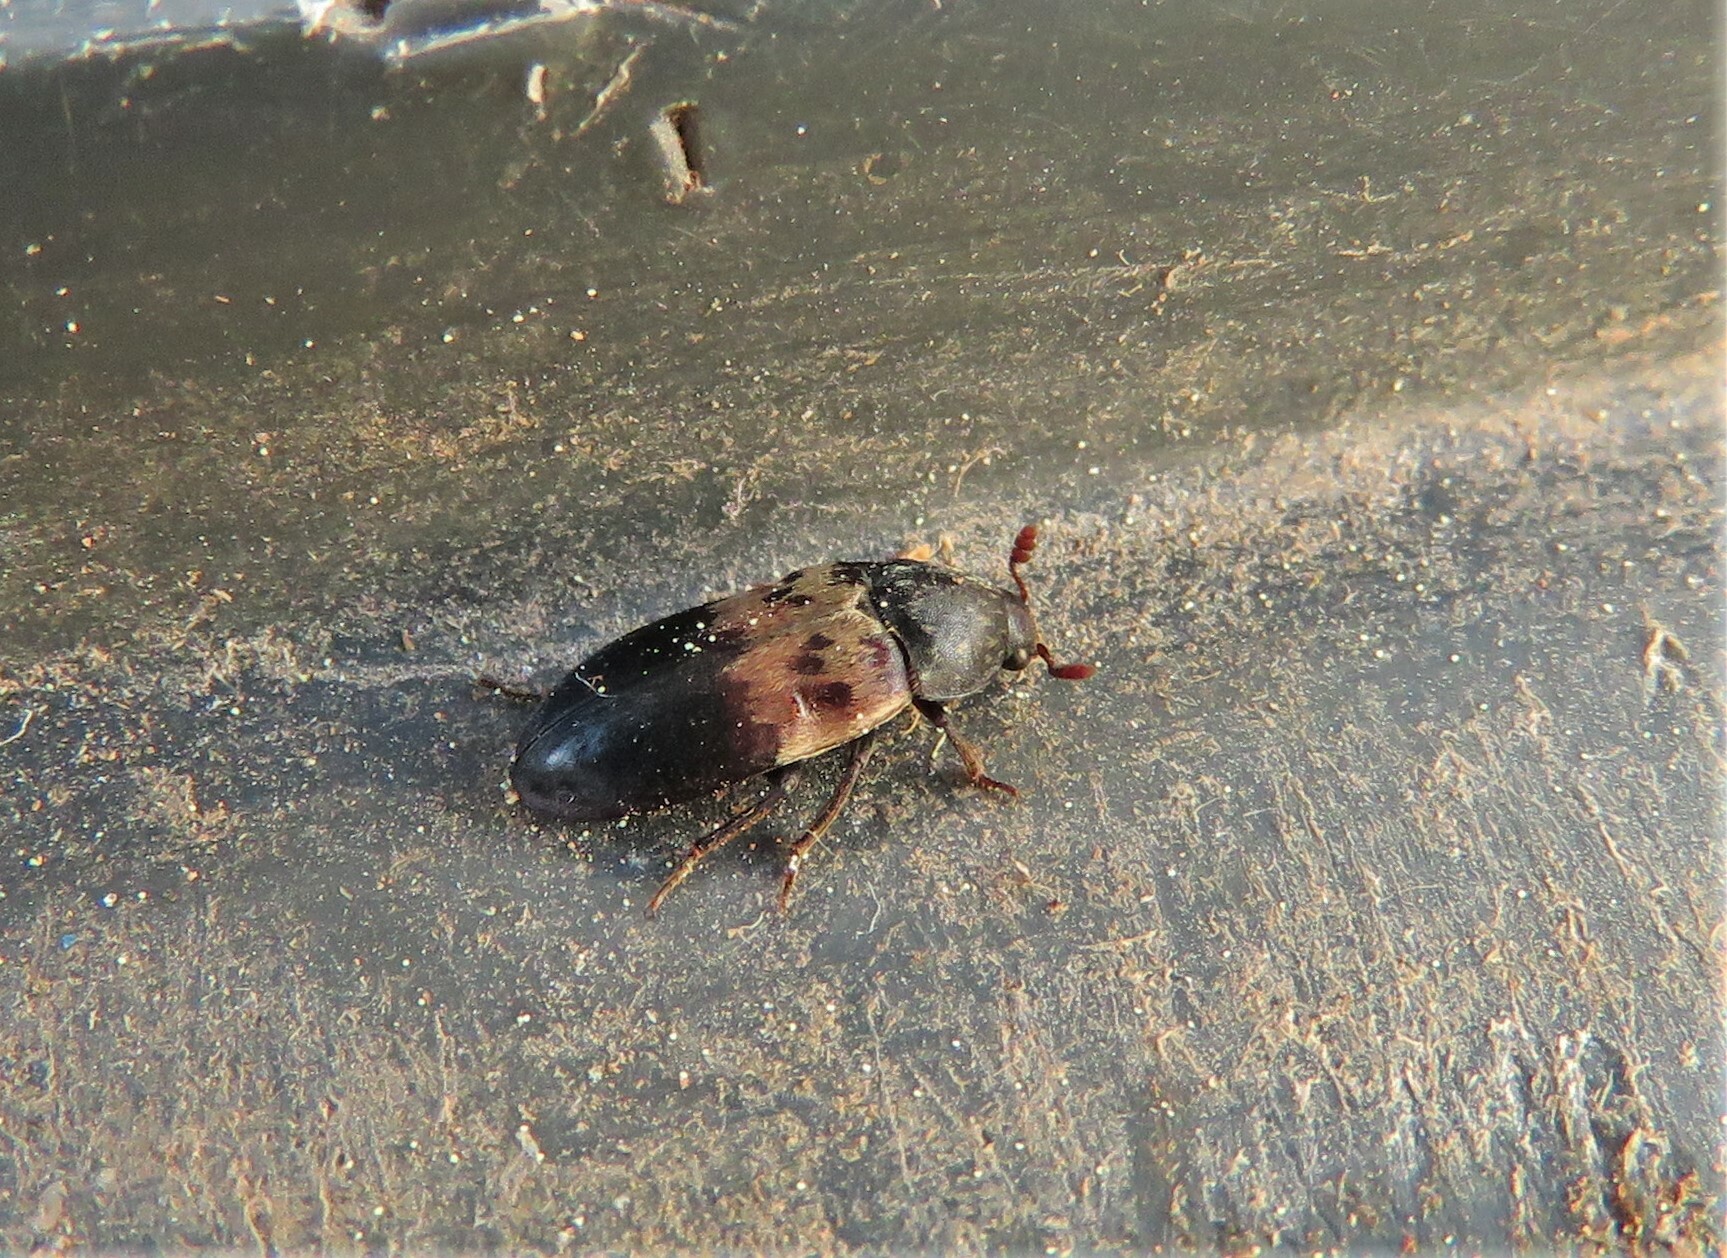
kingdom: Animalia
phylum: Arthropoda
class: Insecta
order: Coleoptera
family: Dermestidae
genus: Dermestes
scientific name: Dermestes lardarius
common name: Larder beetle
